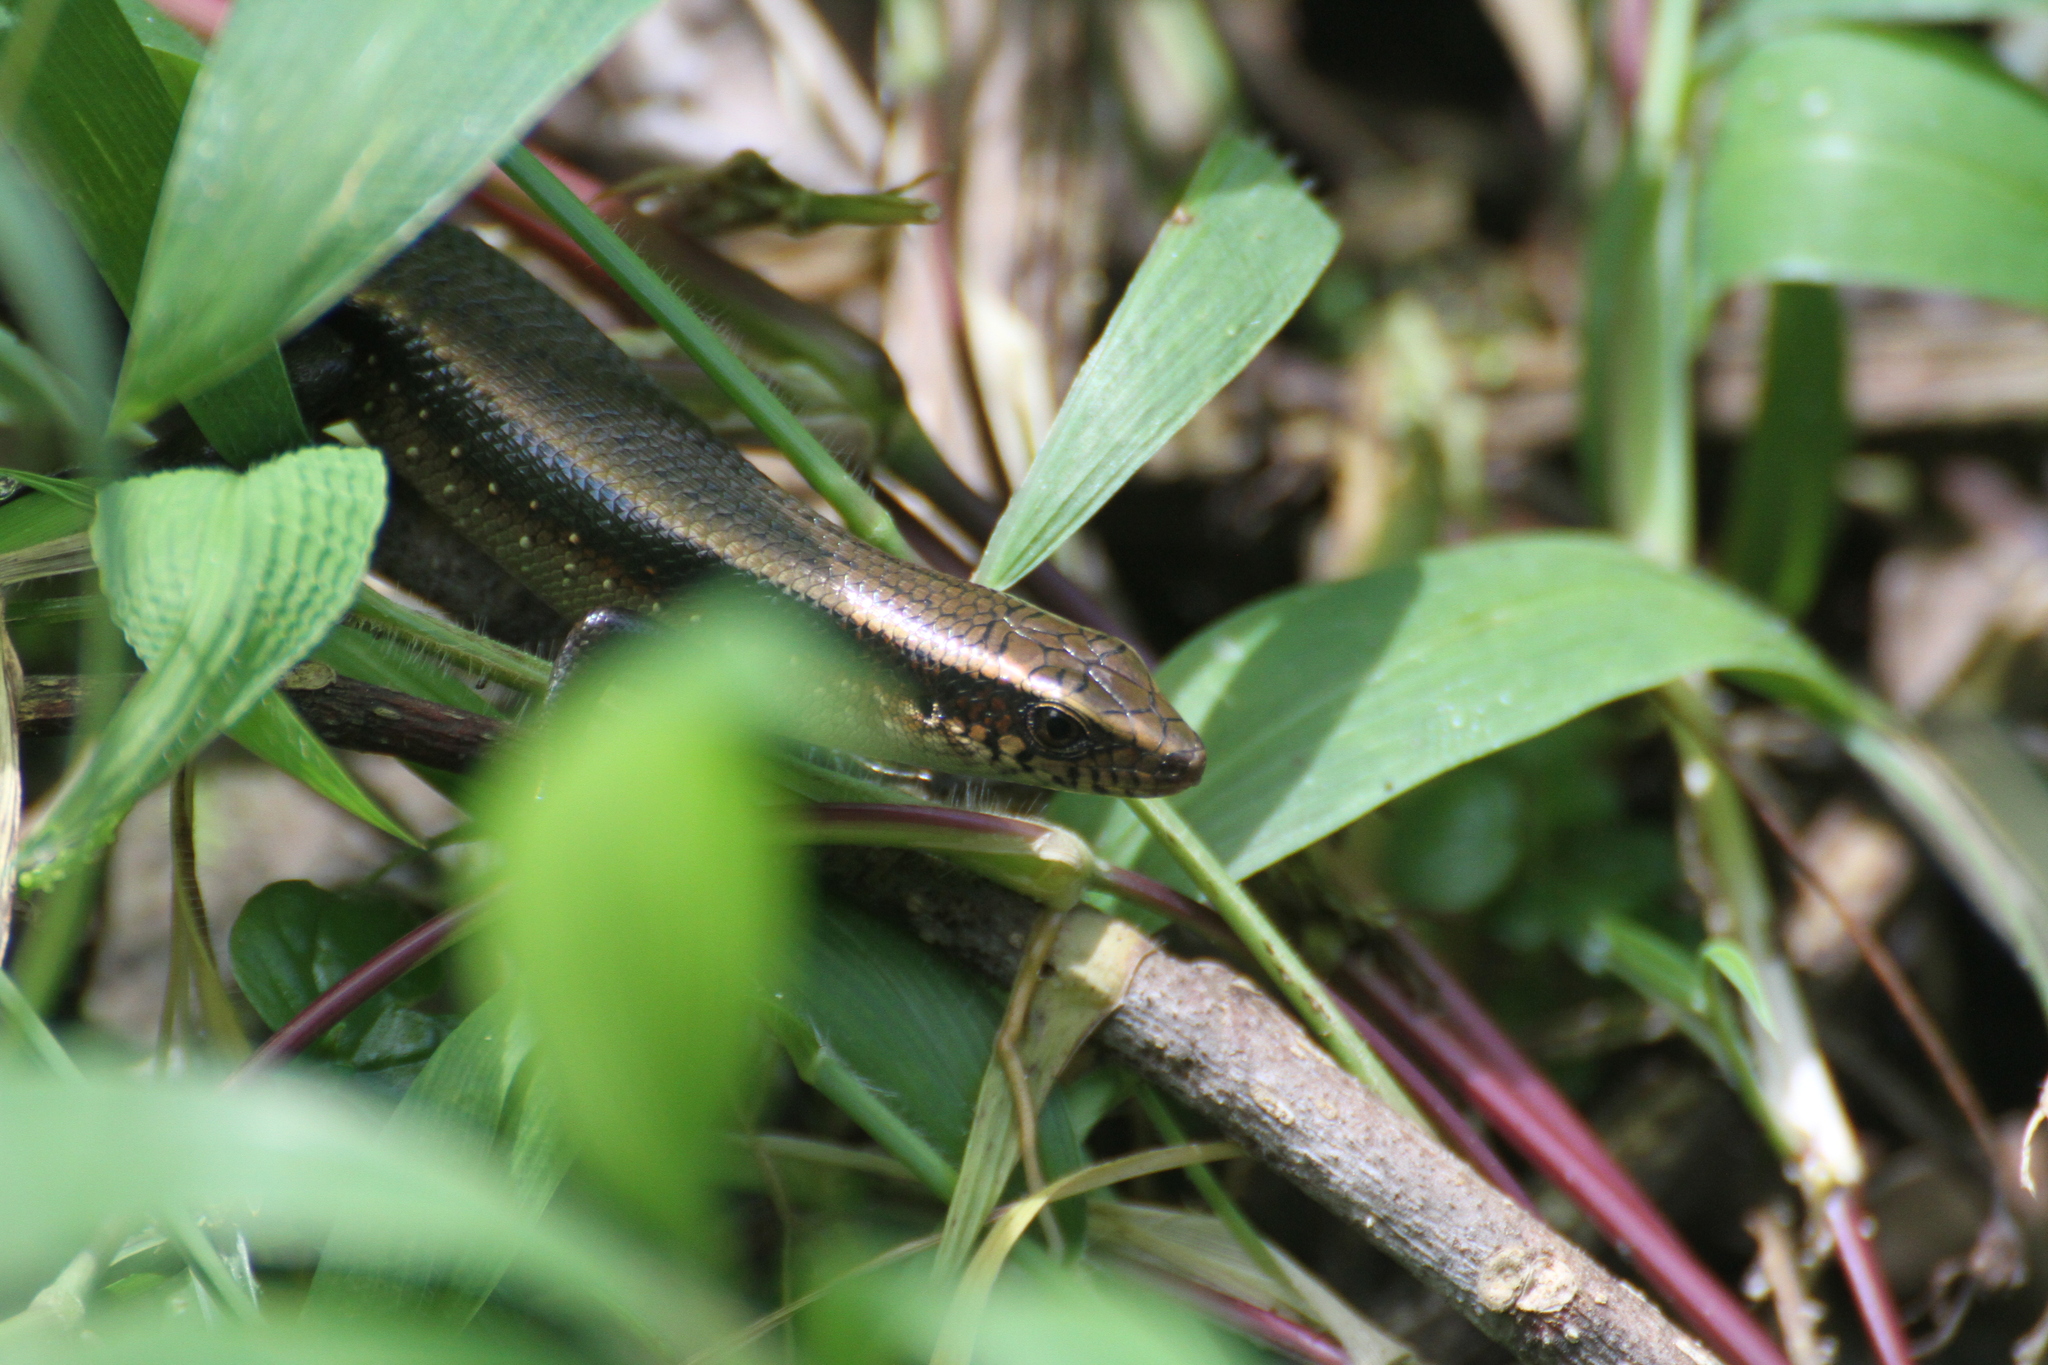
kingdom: Animalia
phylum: Chordata
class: Squamata
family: Scincidae
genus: Eutropis
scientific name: Eutropis multifasciata
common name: Common mabuya
